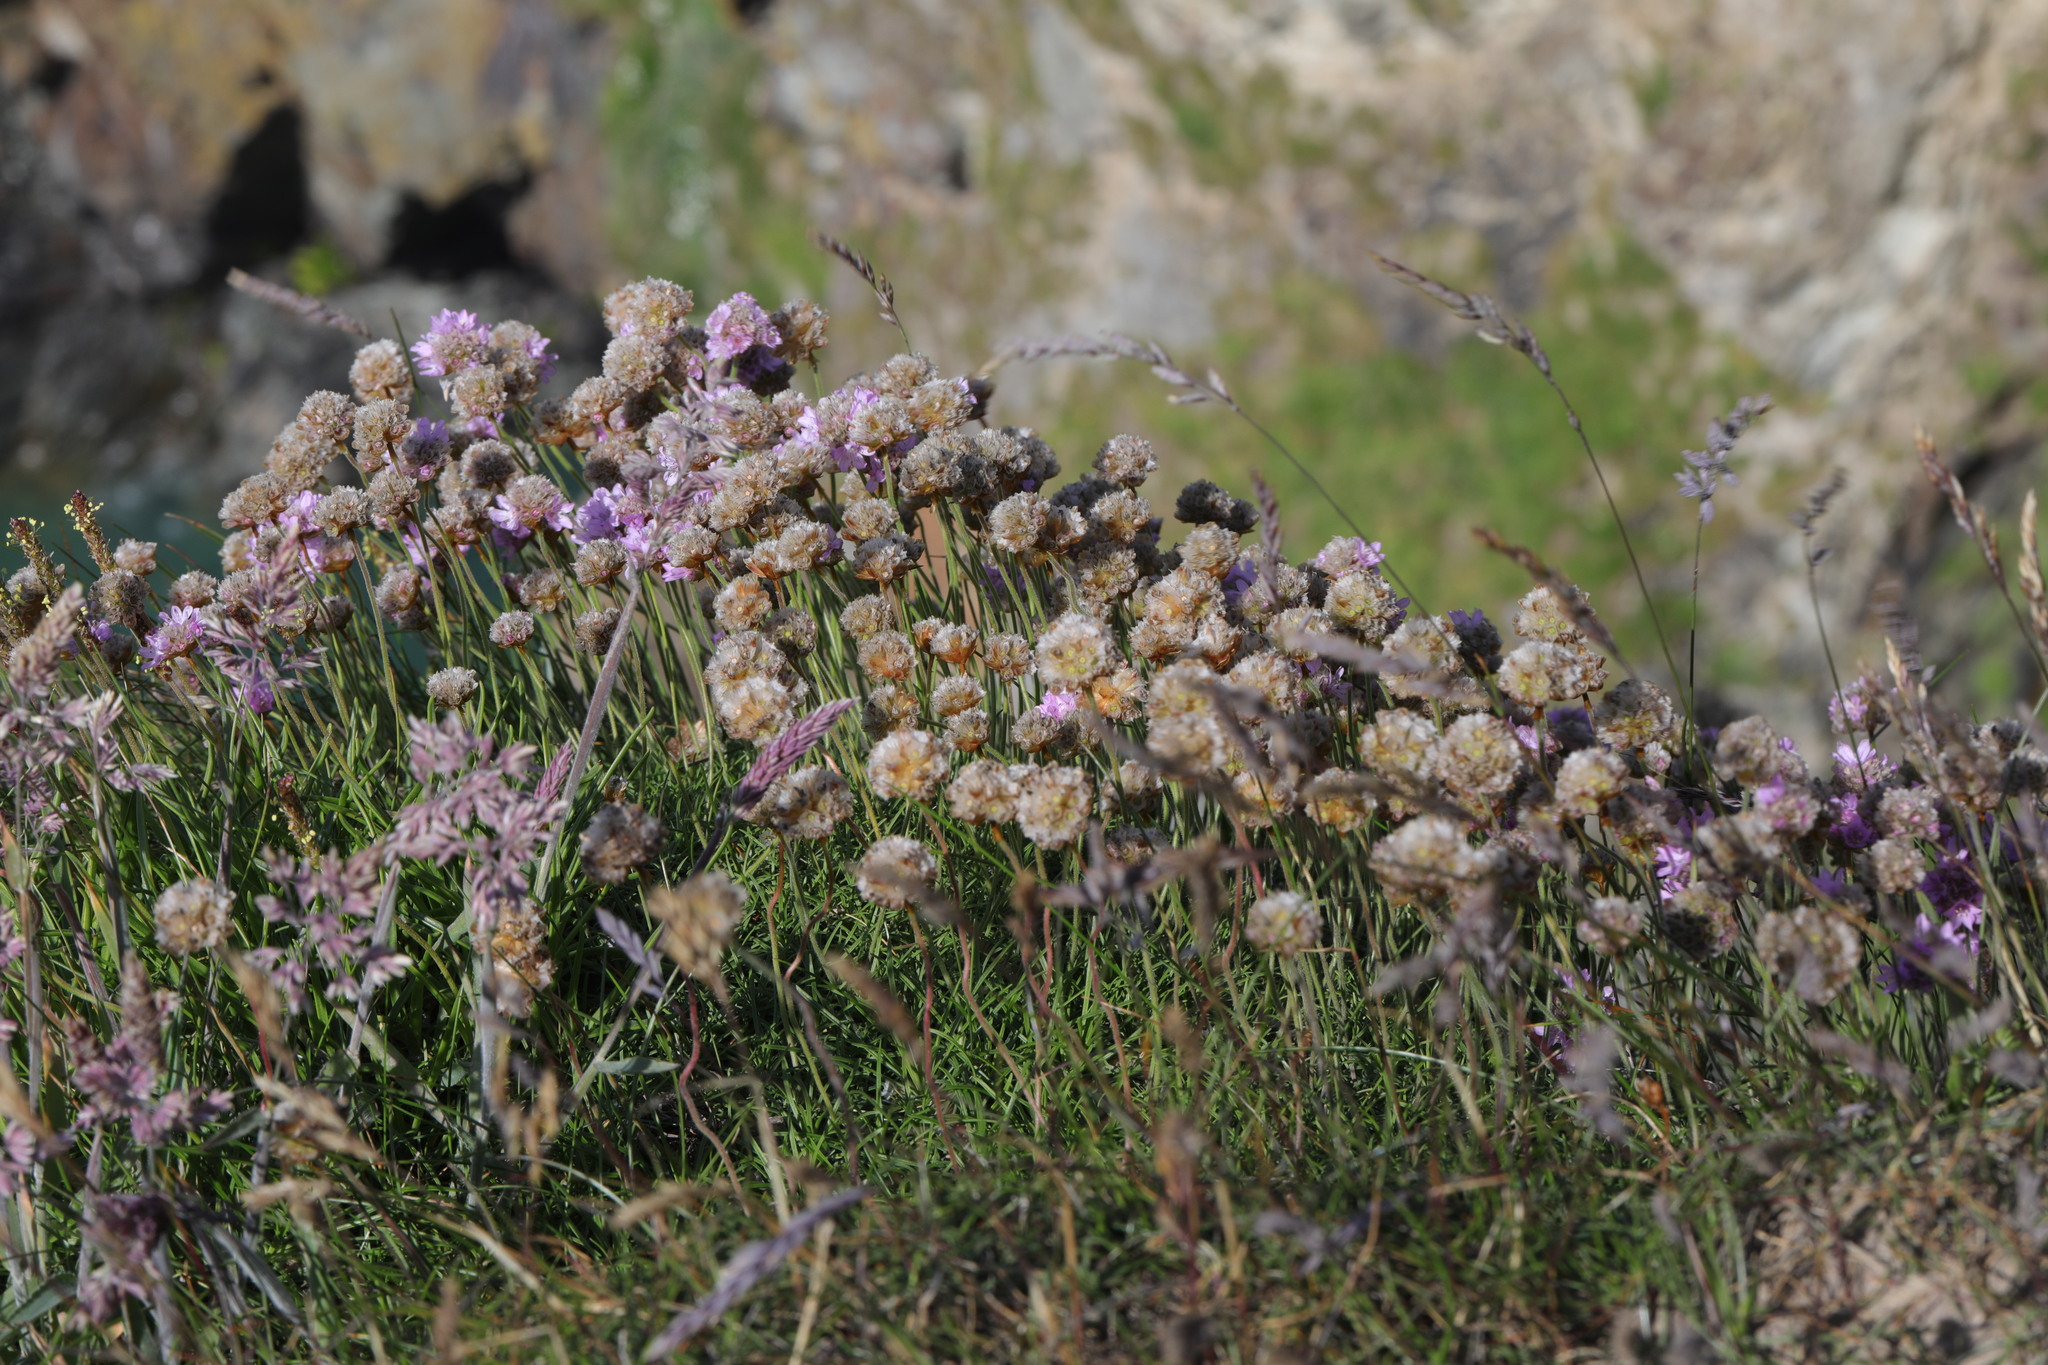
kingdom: Plantae
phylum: Tracheophyta
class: Magnoliopsida
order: Caryophyllales
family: Plumbaginaceae
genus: Armeria
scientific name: Armeria maritima
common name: Thrift
